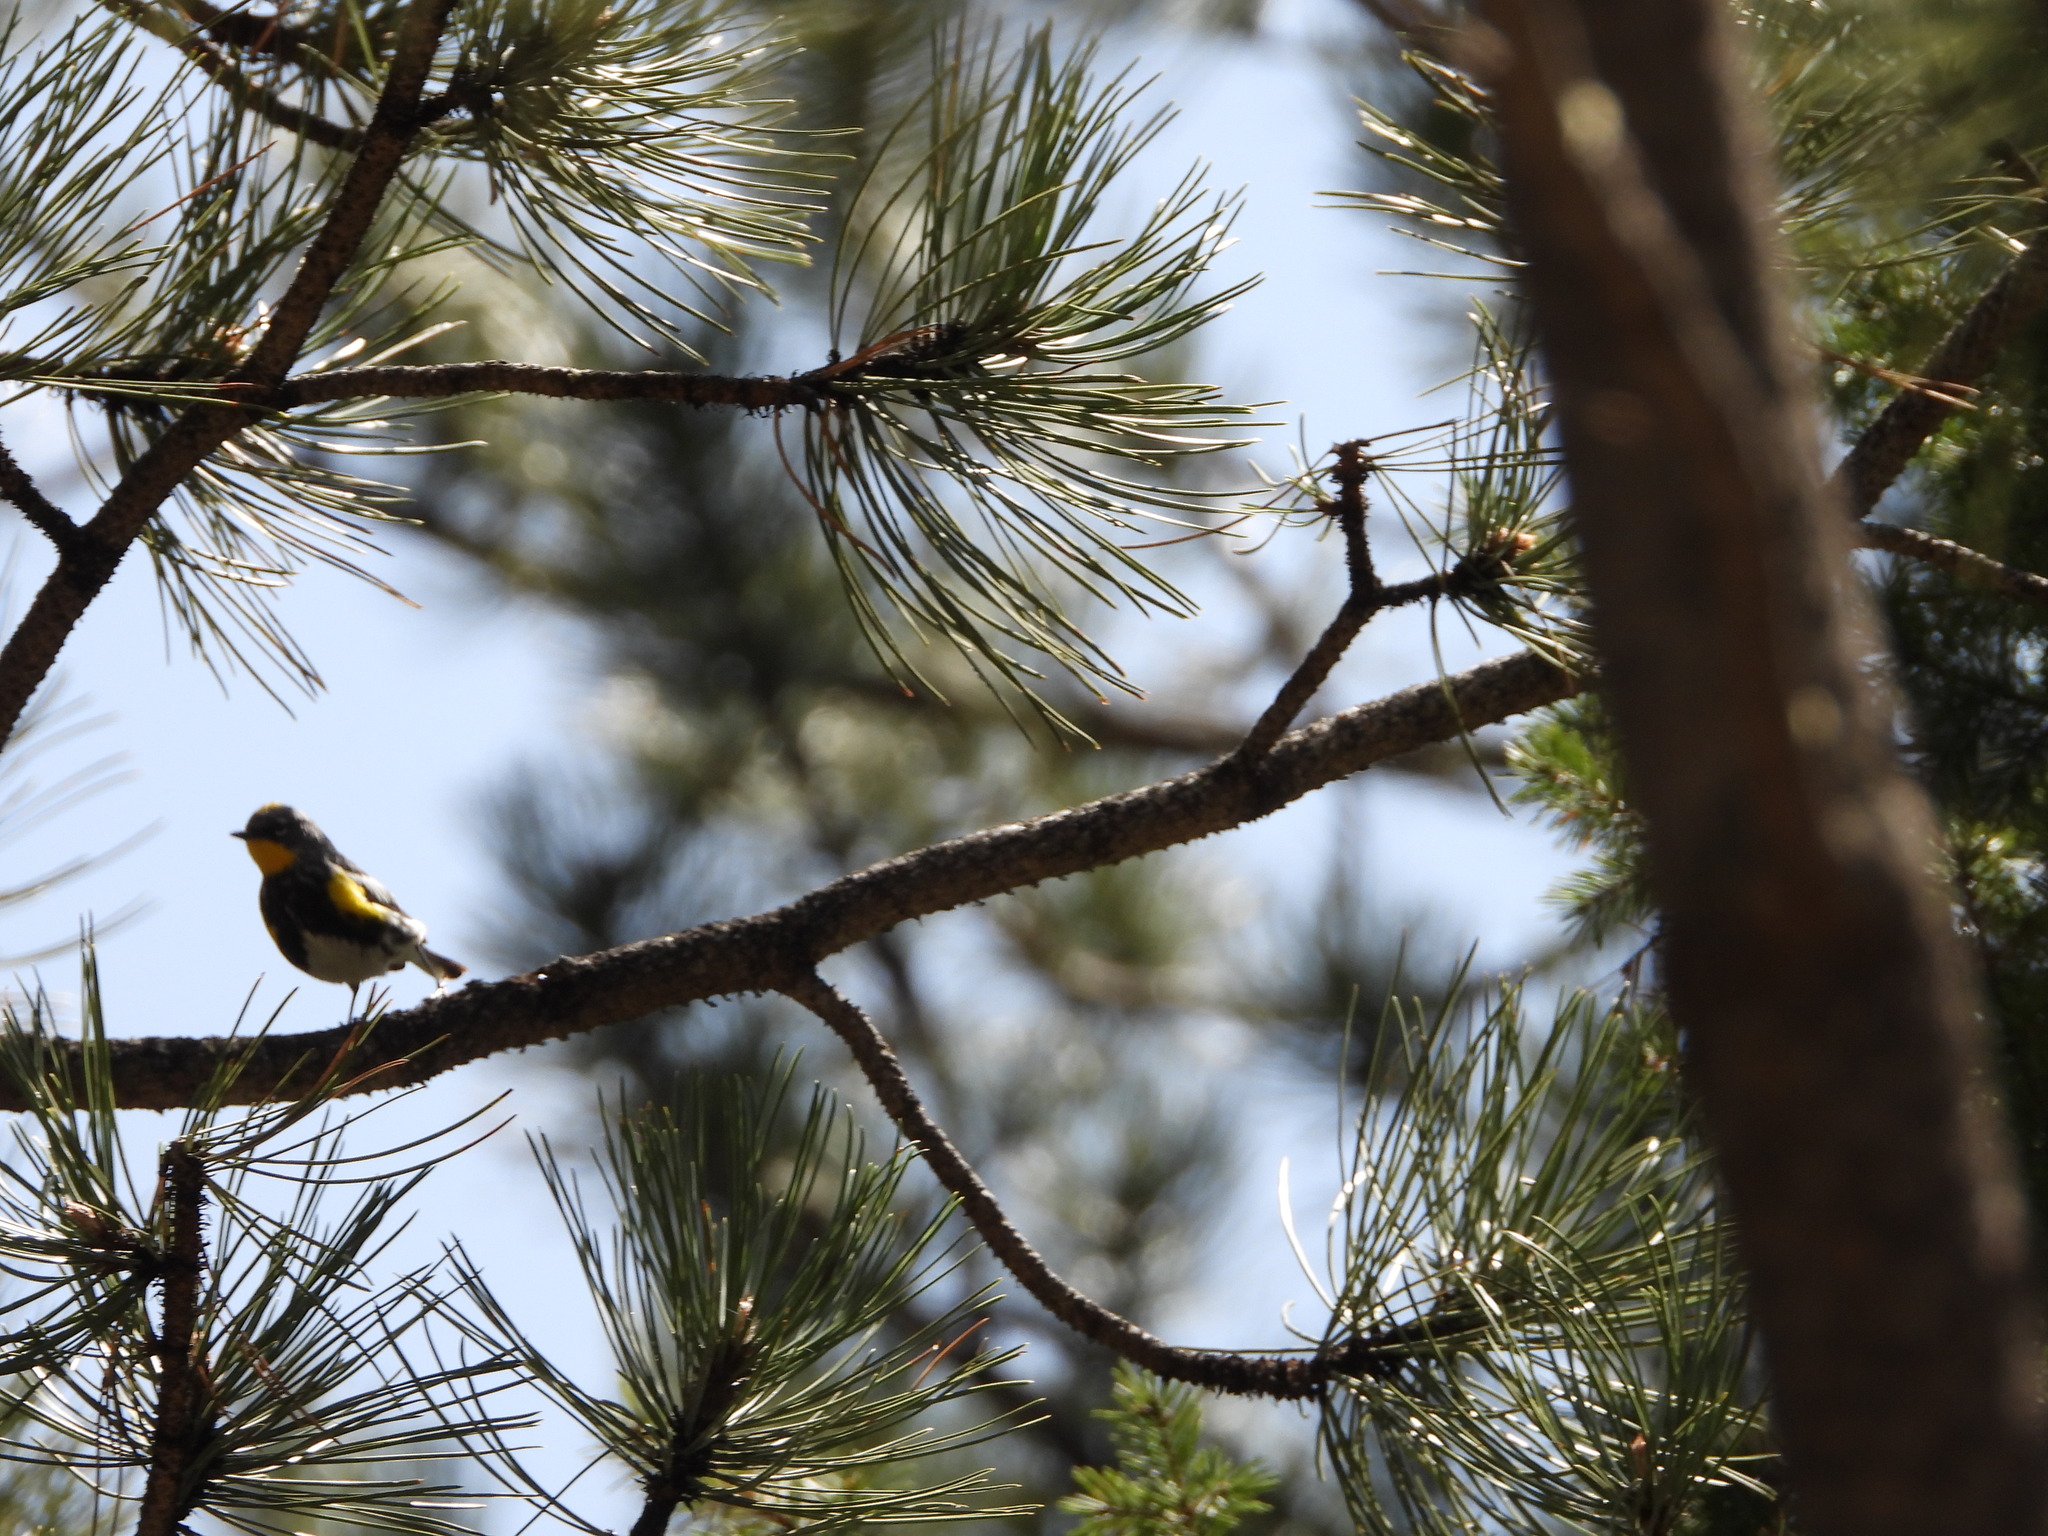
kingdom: Animalia
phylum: Chordata
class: Aves
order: Passeriformes
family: Parulidae
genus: Setophaga
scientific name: Setophaga coronata
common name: Myrtle warbler
